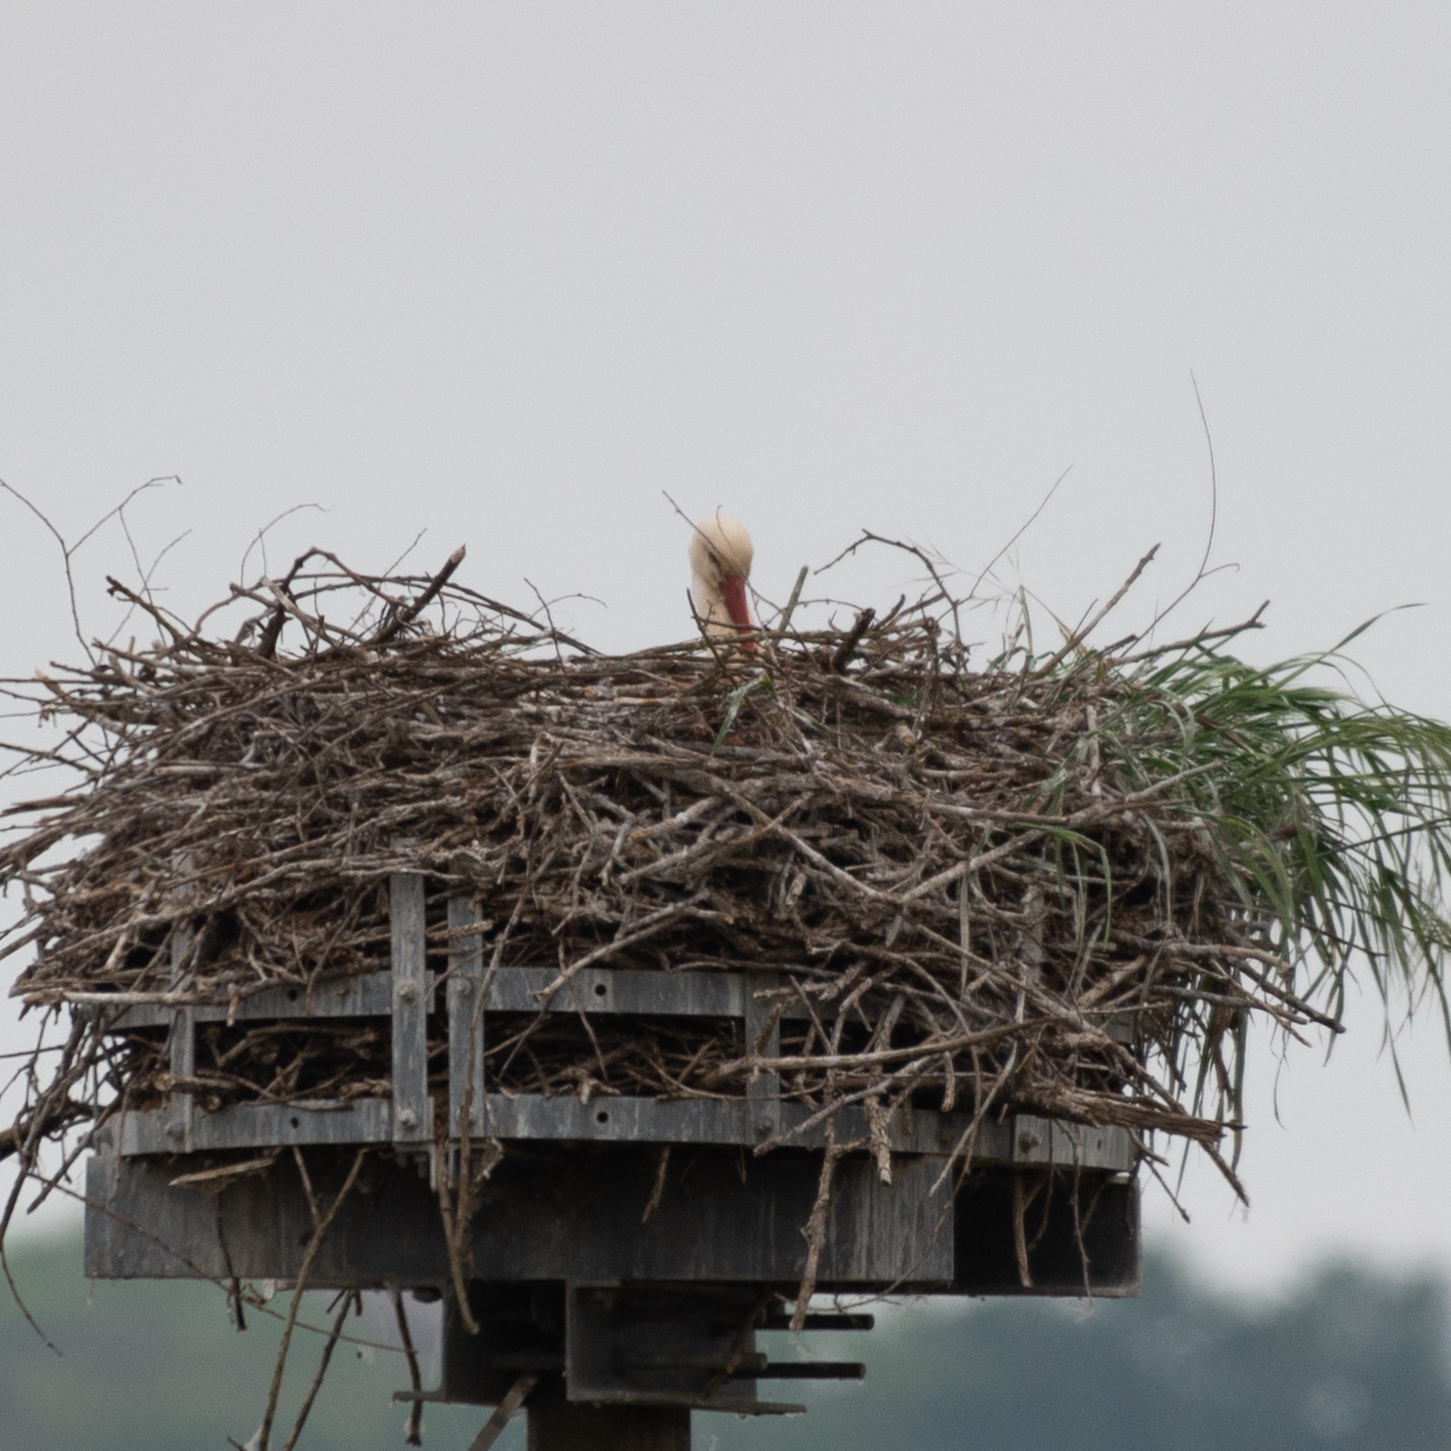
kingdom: Animalia
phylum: Chordata
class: Aves
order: Ciconiiformes
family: Ciconiidae
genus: Ciconia
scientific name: Ciconia ciconia
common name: White stork
